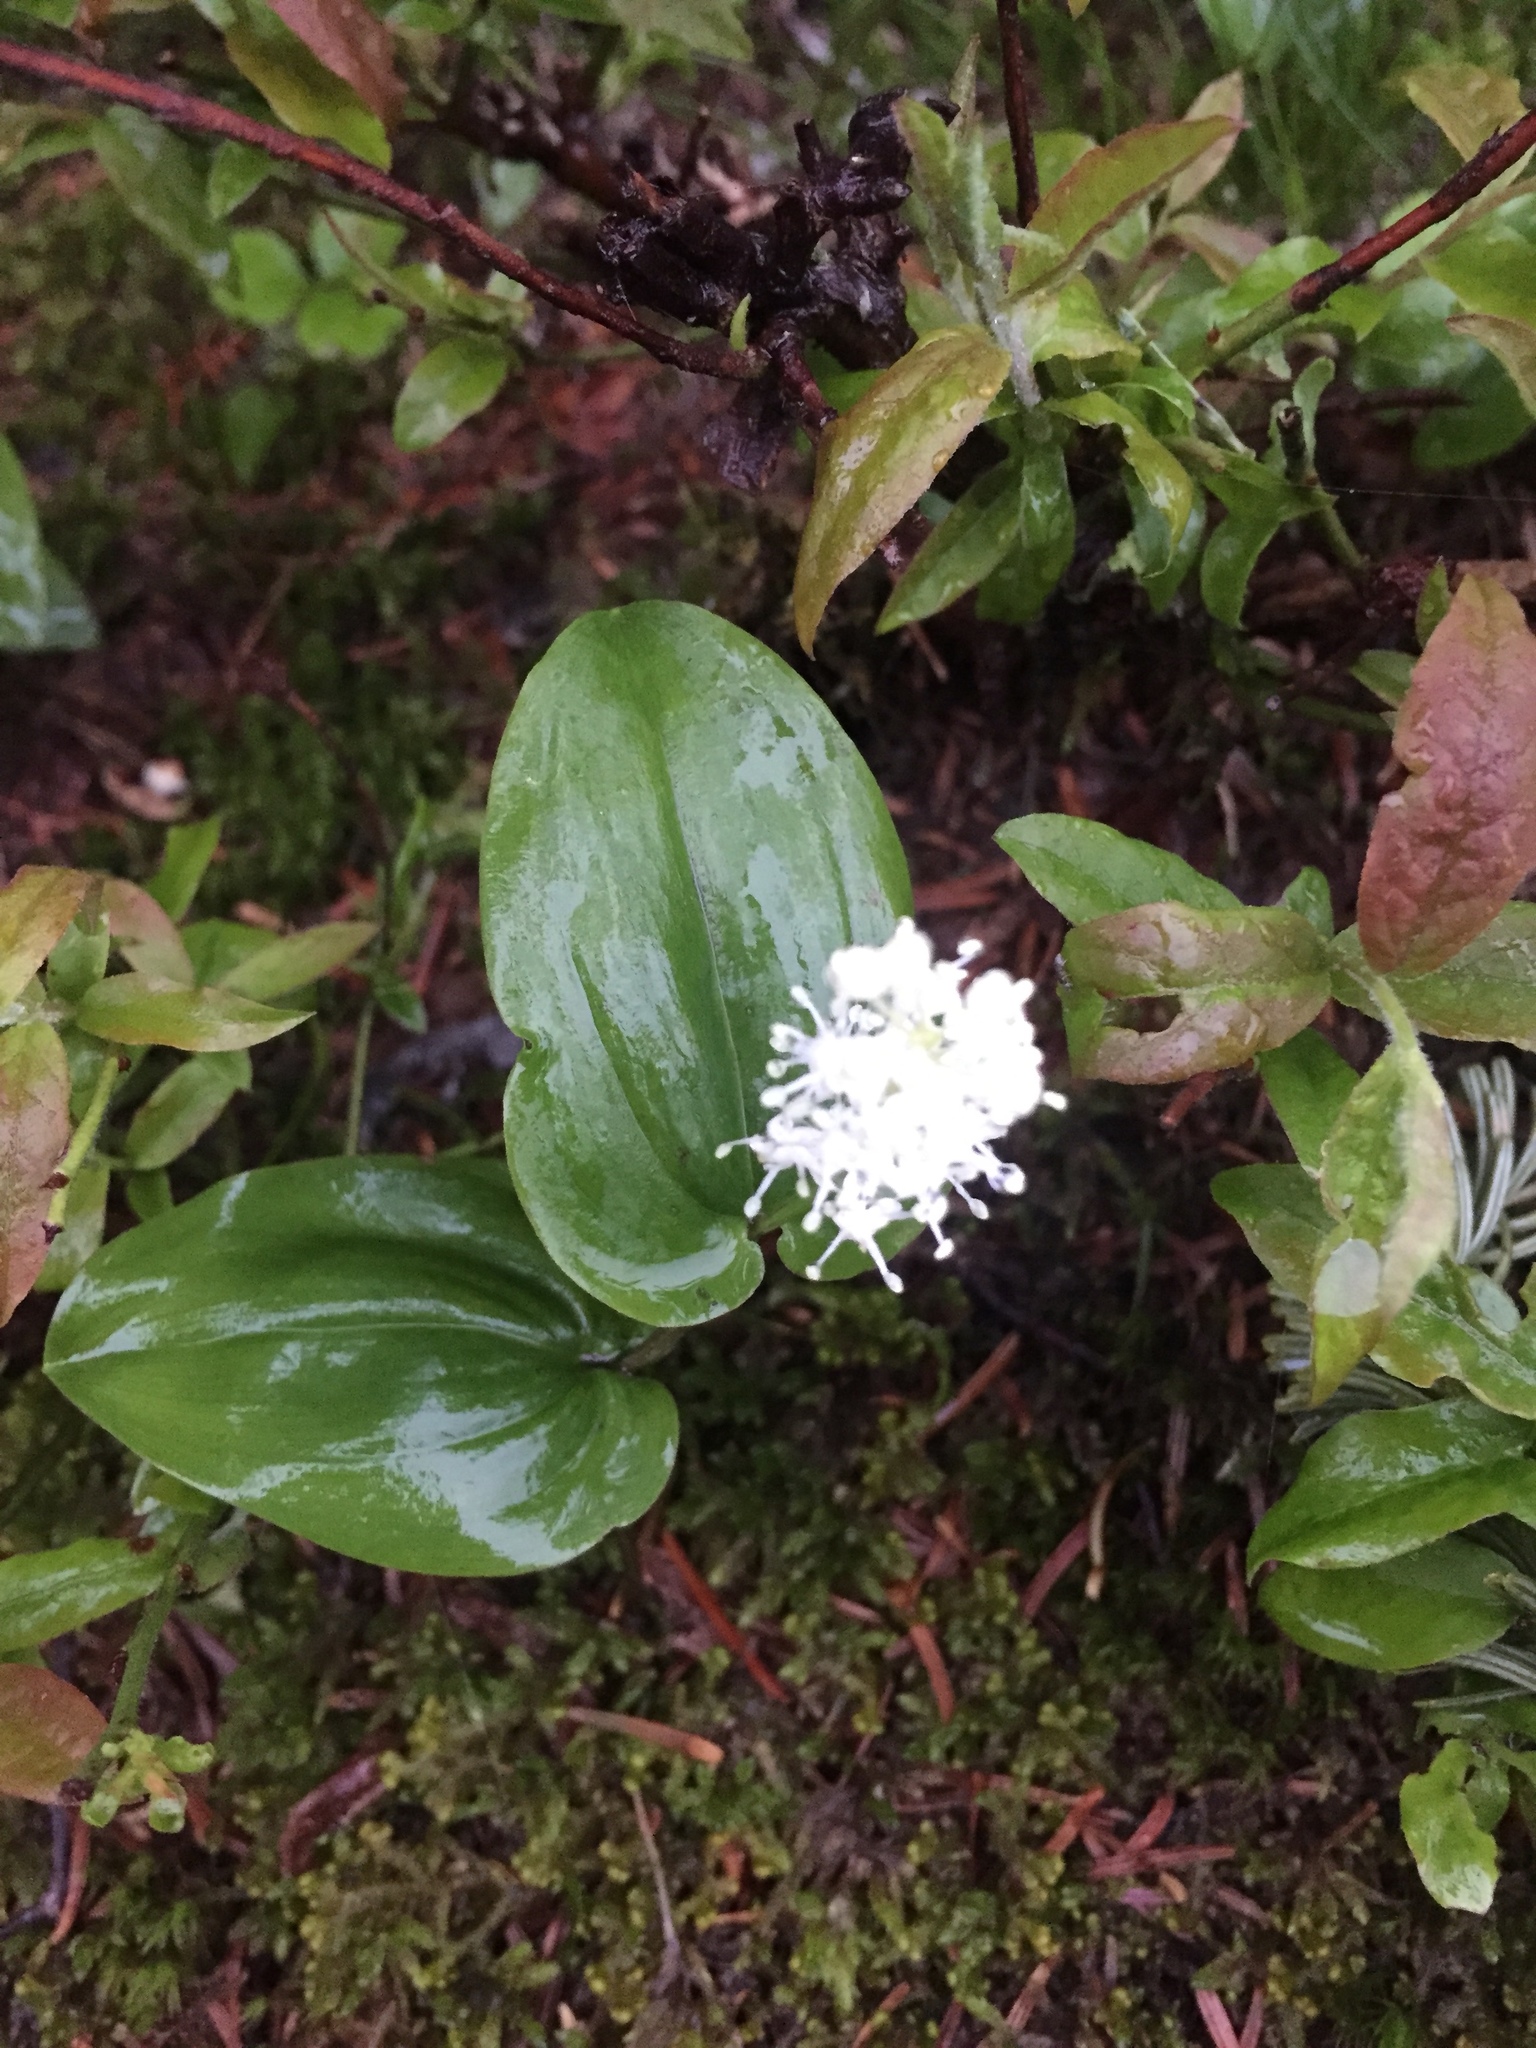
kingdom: Plantae
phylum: Tracheophyta
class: Liliopsida
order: Asparagales
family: Asparagaceae
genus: Maianthemum
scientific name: Maianthemum canadense
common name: False lily-of-the-valley
